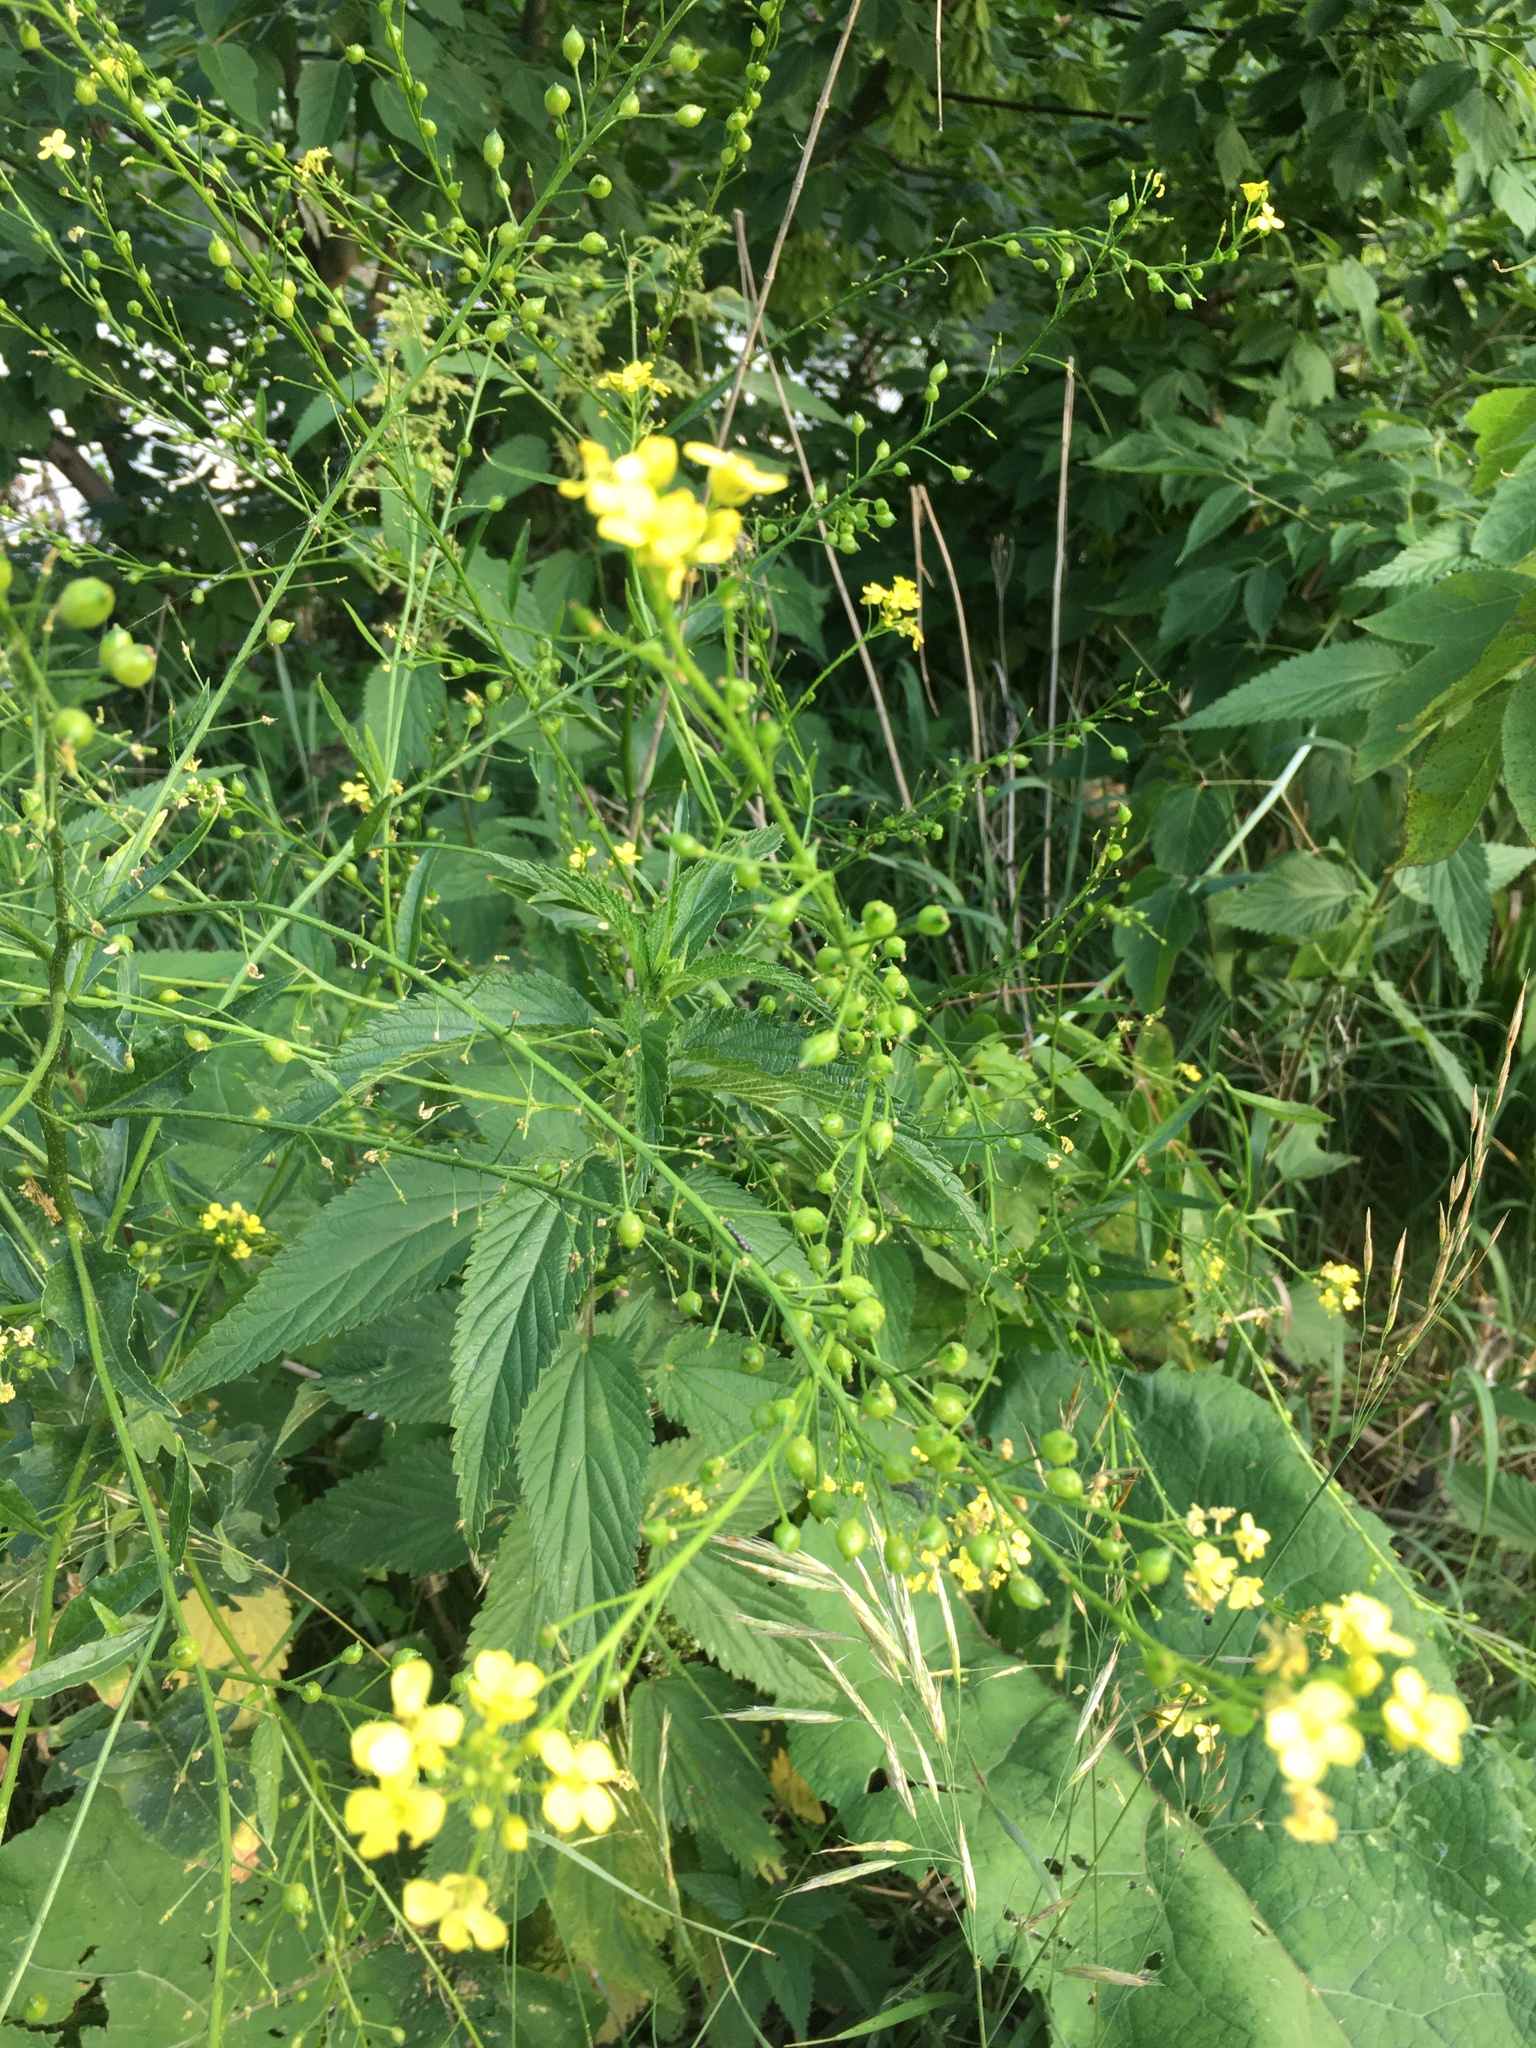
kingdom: Plantae
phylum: Tracheophyta
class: Magnoliopsida
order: Brassicales
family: Brassicaceae
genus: Bunias
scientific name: Bunias orientalis
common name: Warty-cabbage
